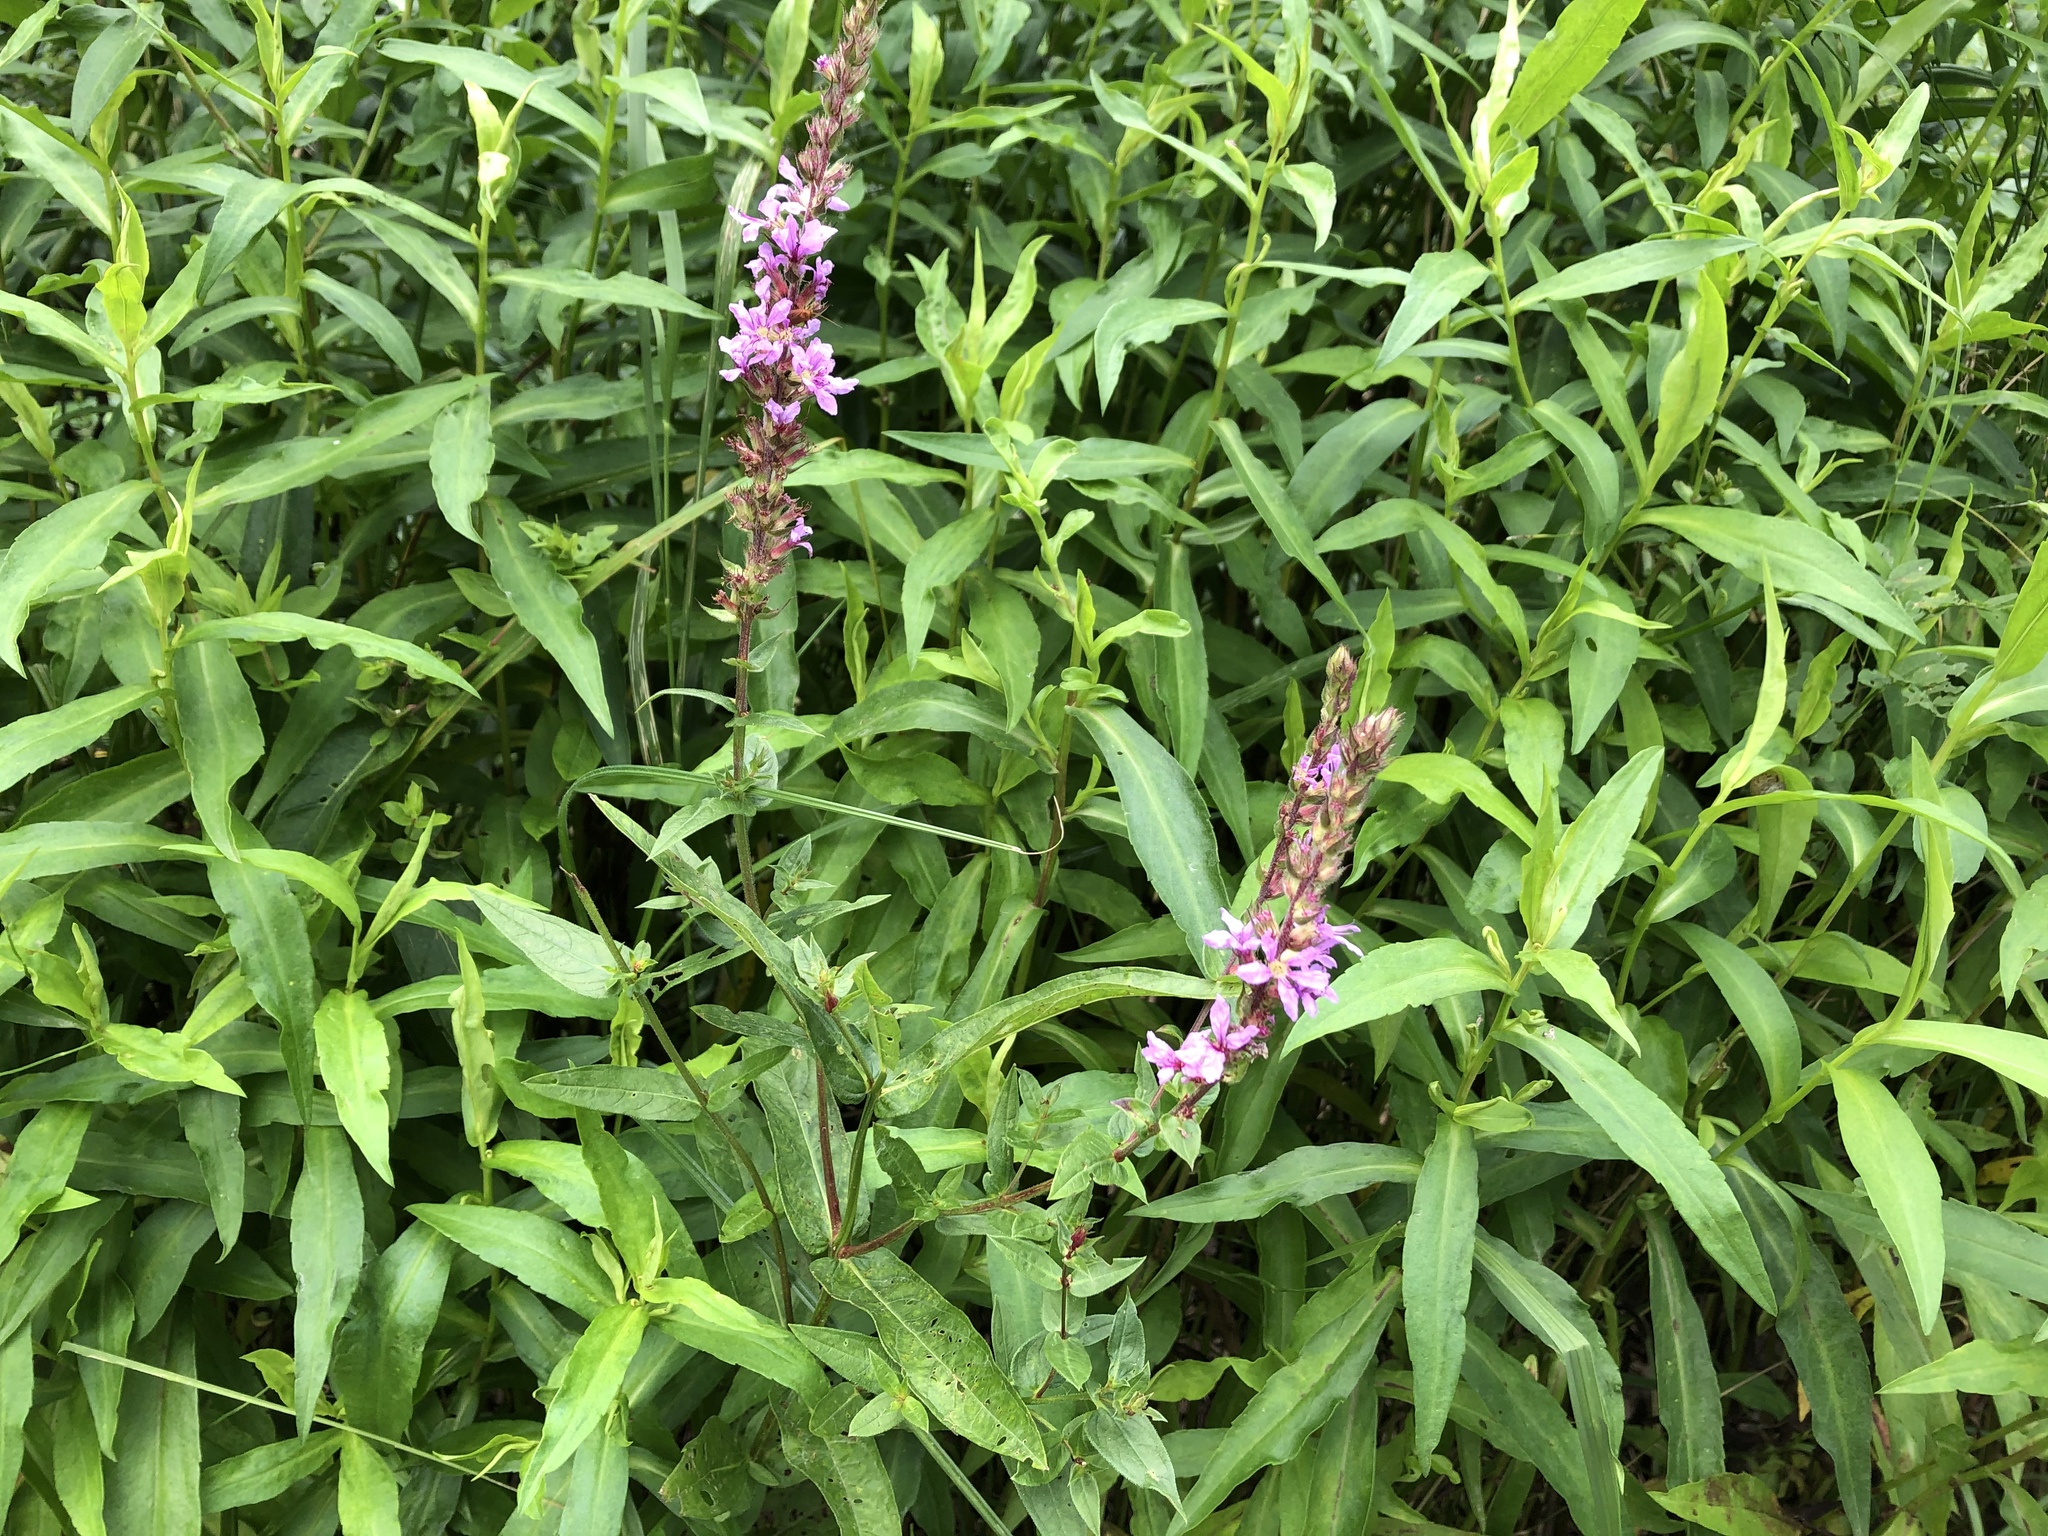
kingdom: Plantae
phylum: Tracheophyta
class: Magnoliopsida
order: Myrtales
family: Lythraceae
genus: Lythrum
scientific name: Lythrum salicaria
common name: Purple loosestrife
